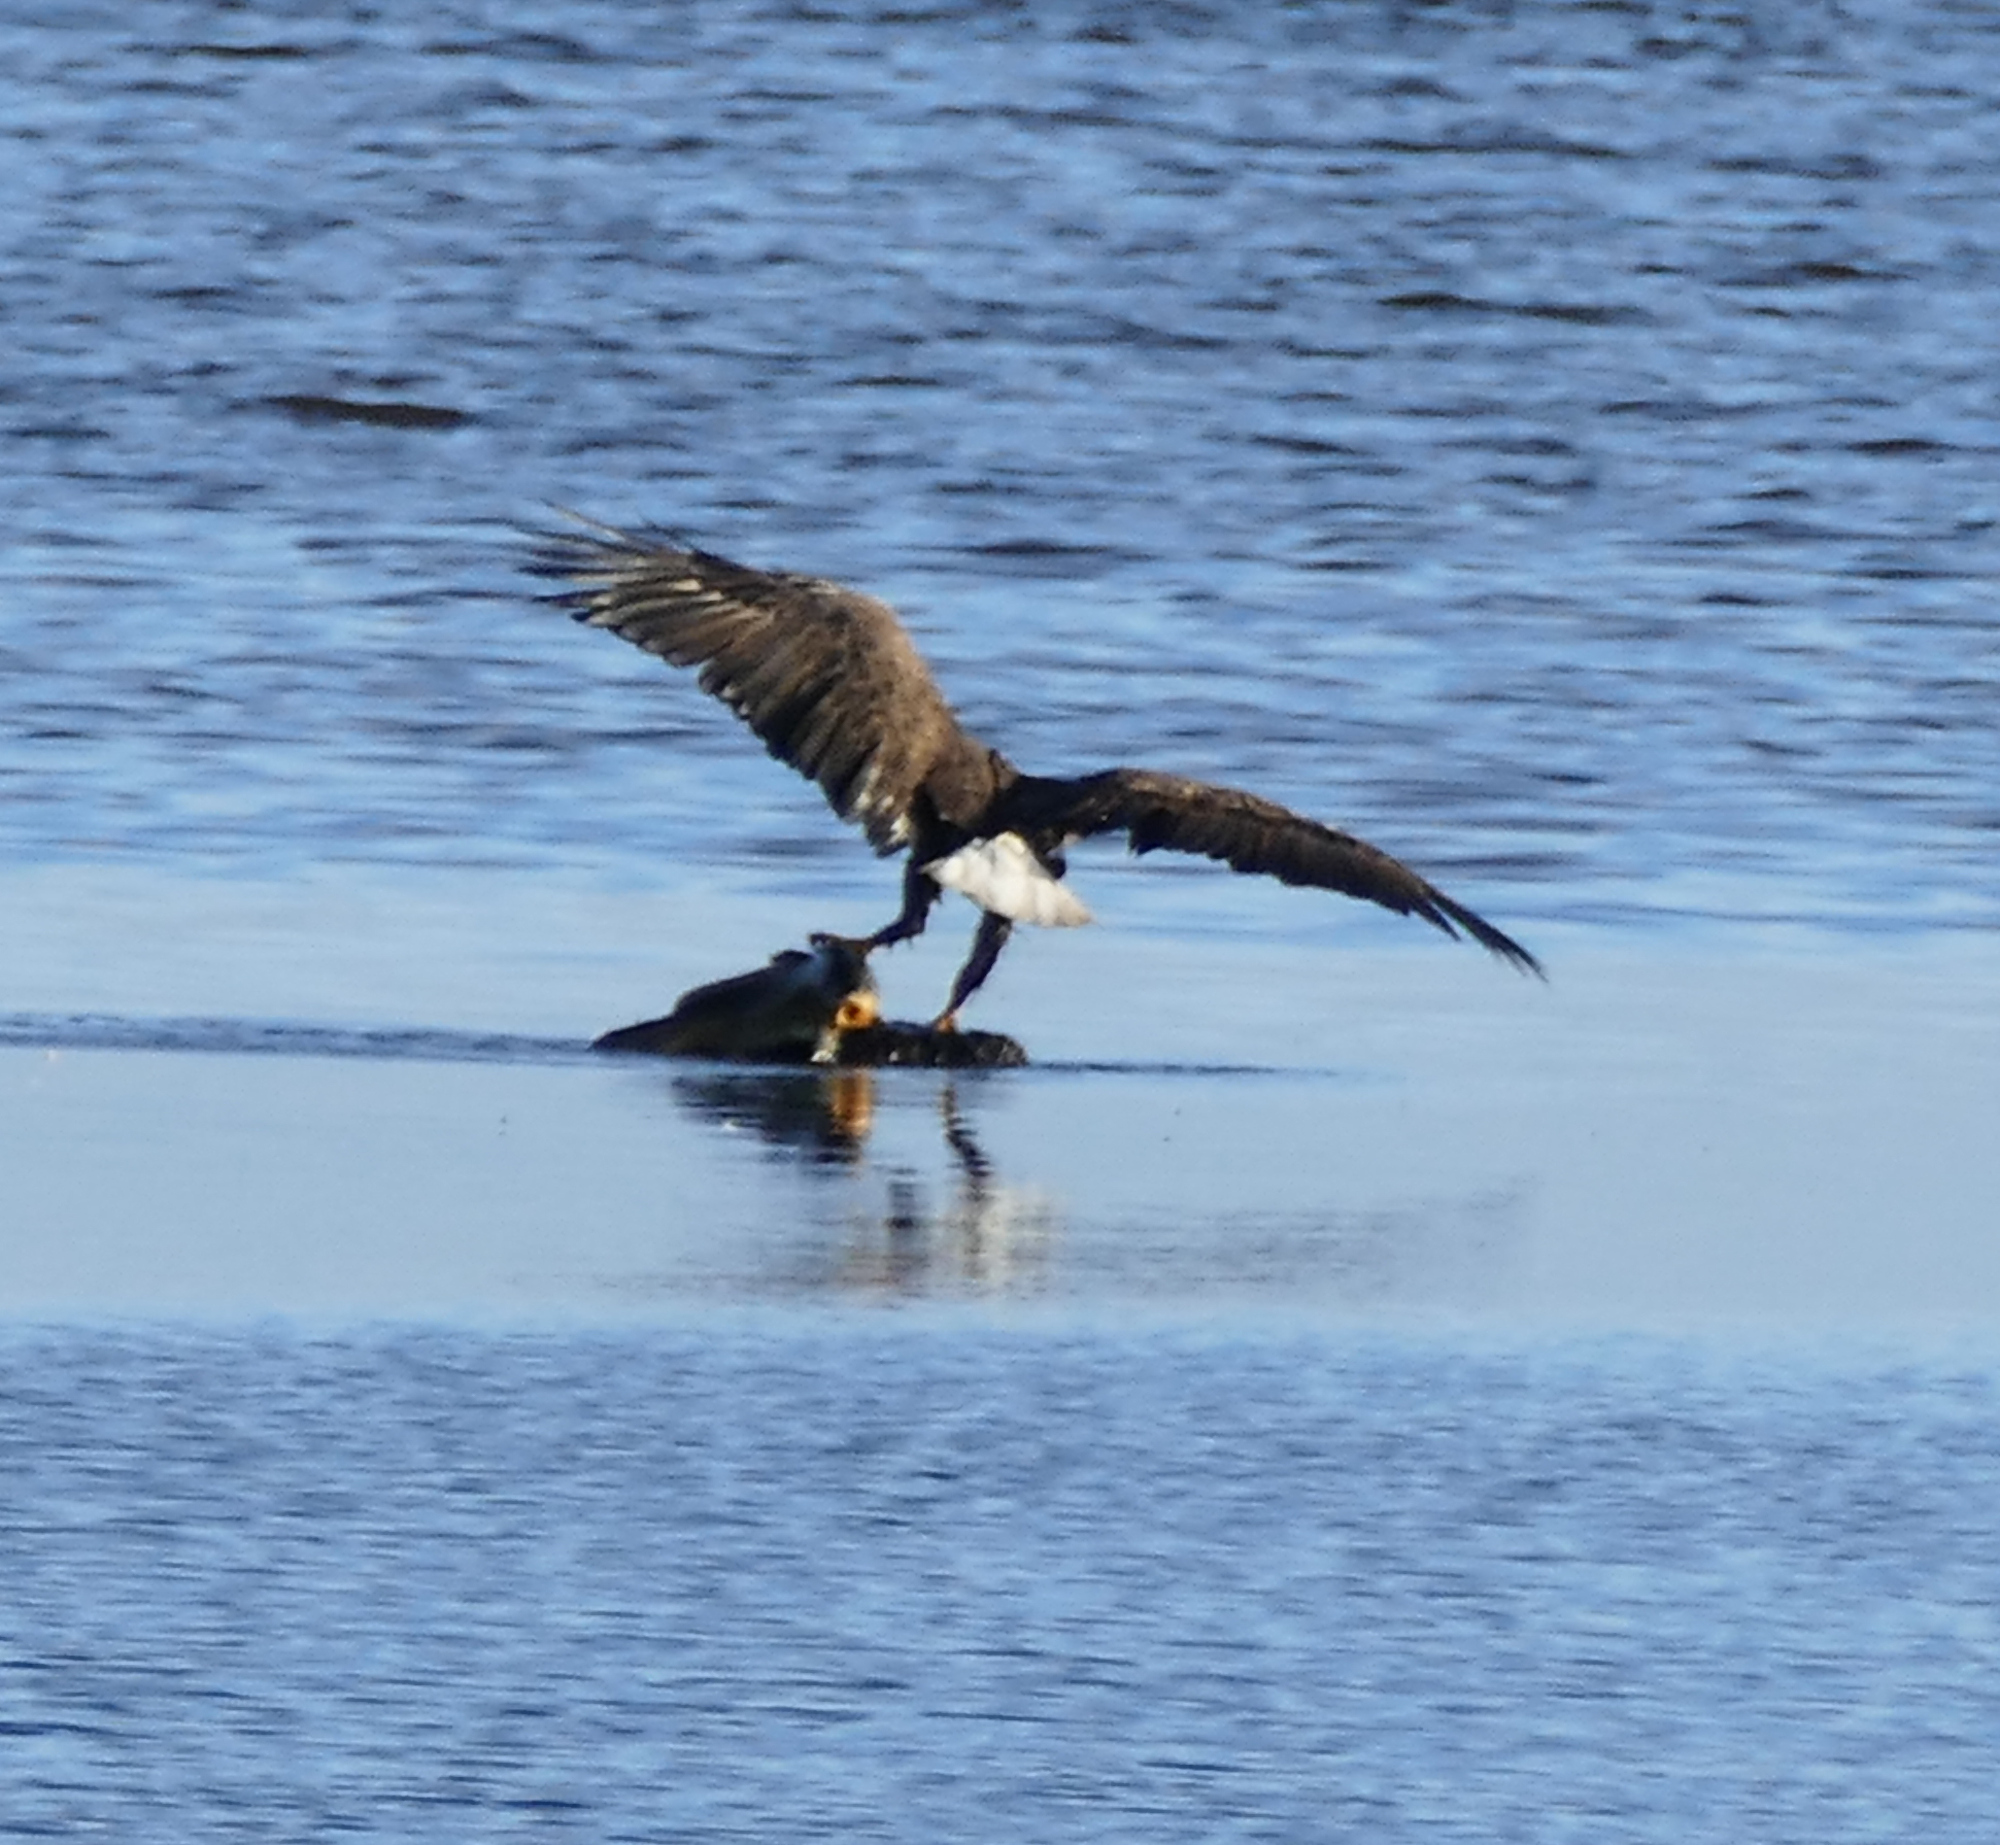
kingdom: Animalia
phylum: Chordata
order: Cypriniformes
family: Cyprinidae
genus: Cyprinus
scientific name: Cyprinus carpio
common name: Common carp
